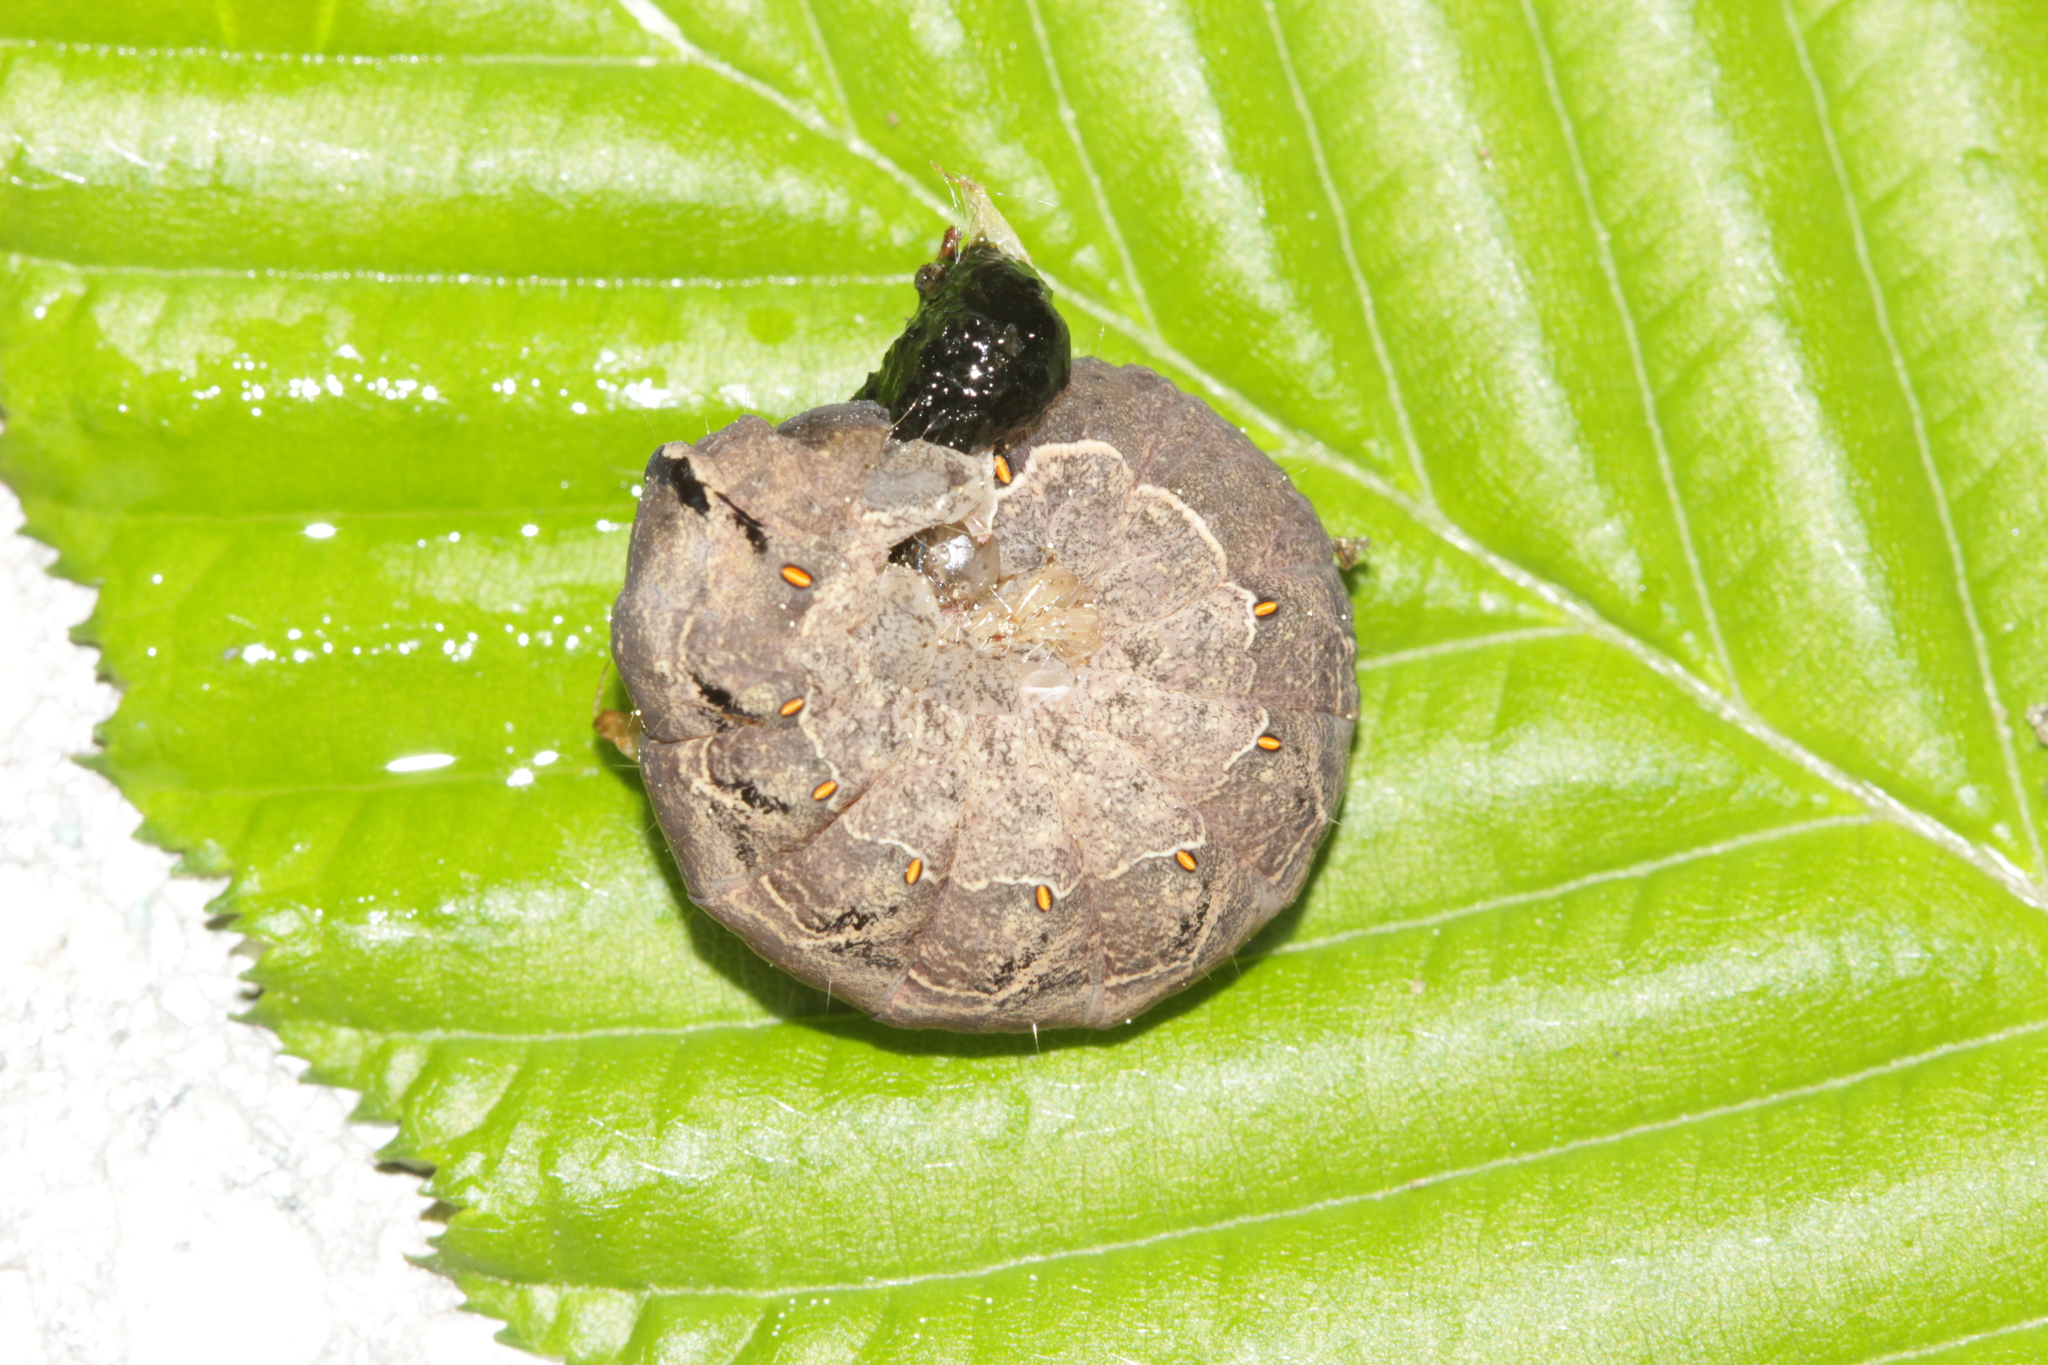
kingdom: Animalia
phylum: Arthropoda
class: Insecta
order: Lepidoptera
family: Noctuidae
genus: Mormo
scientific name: Mormo maura
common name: Old lady
